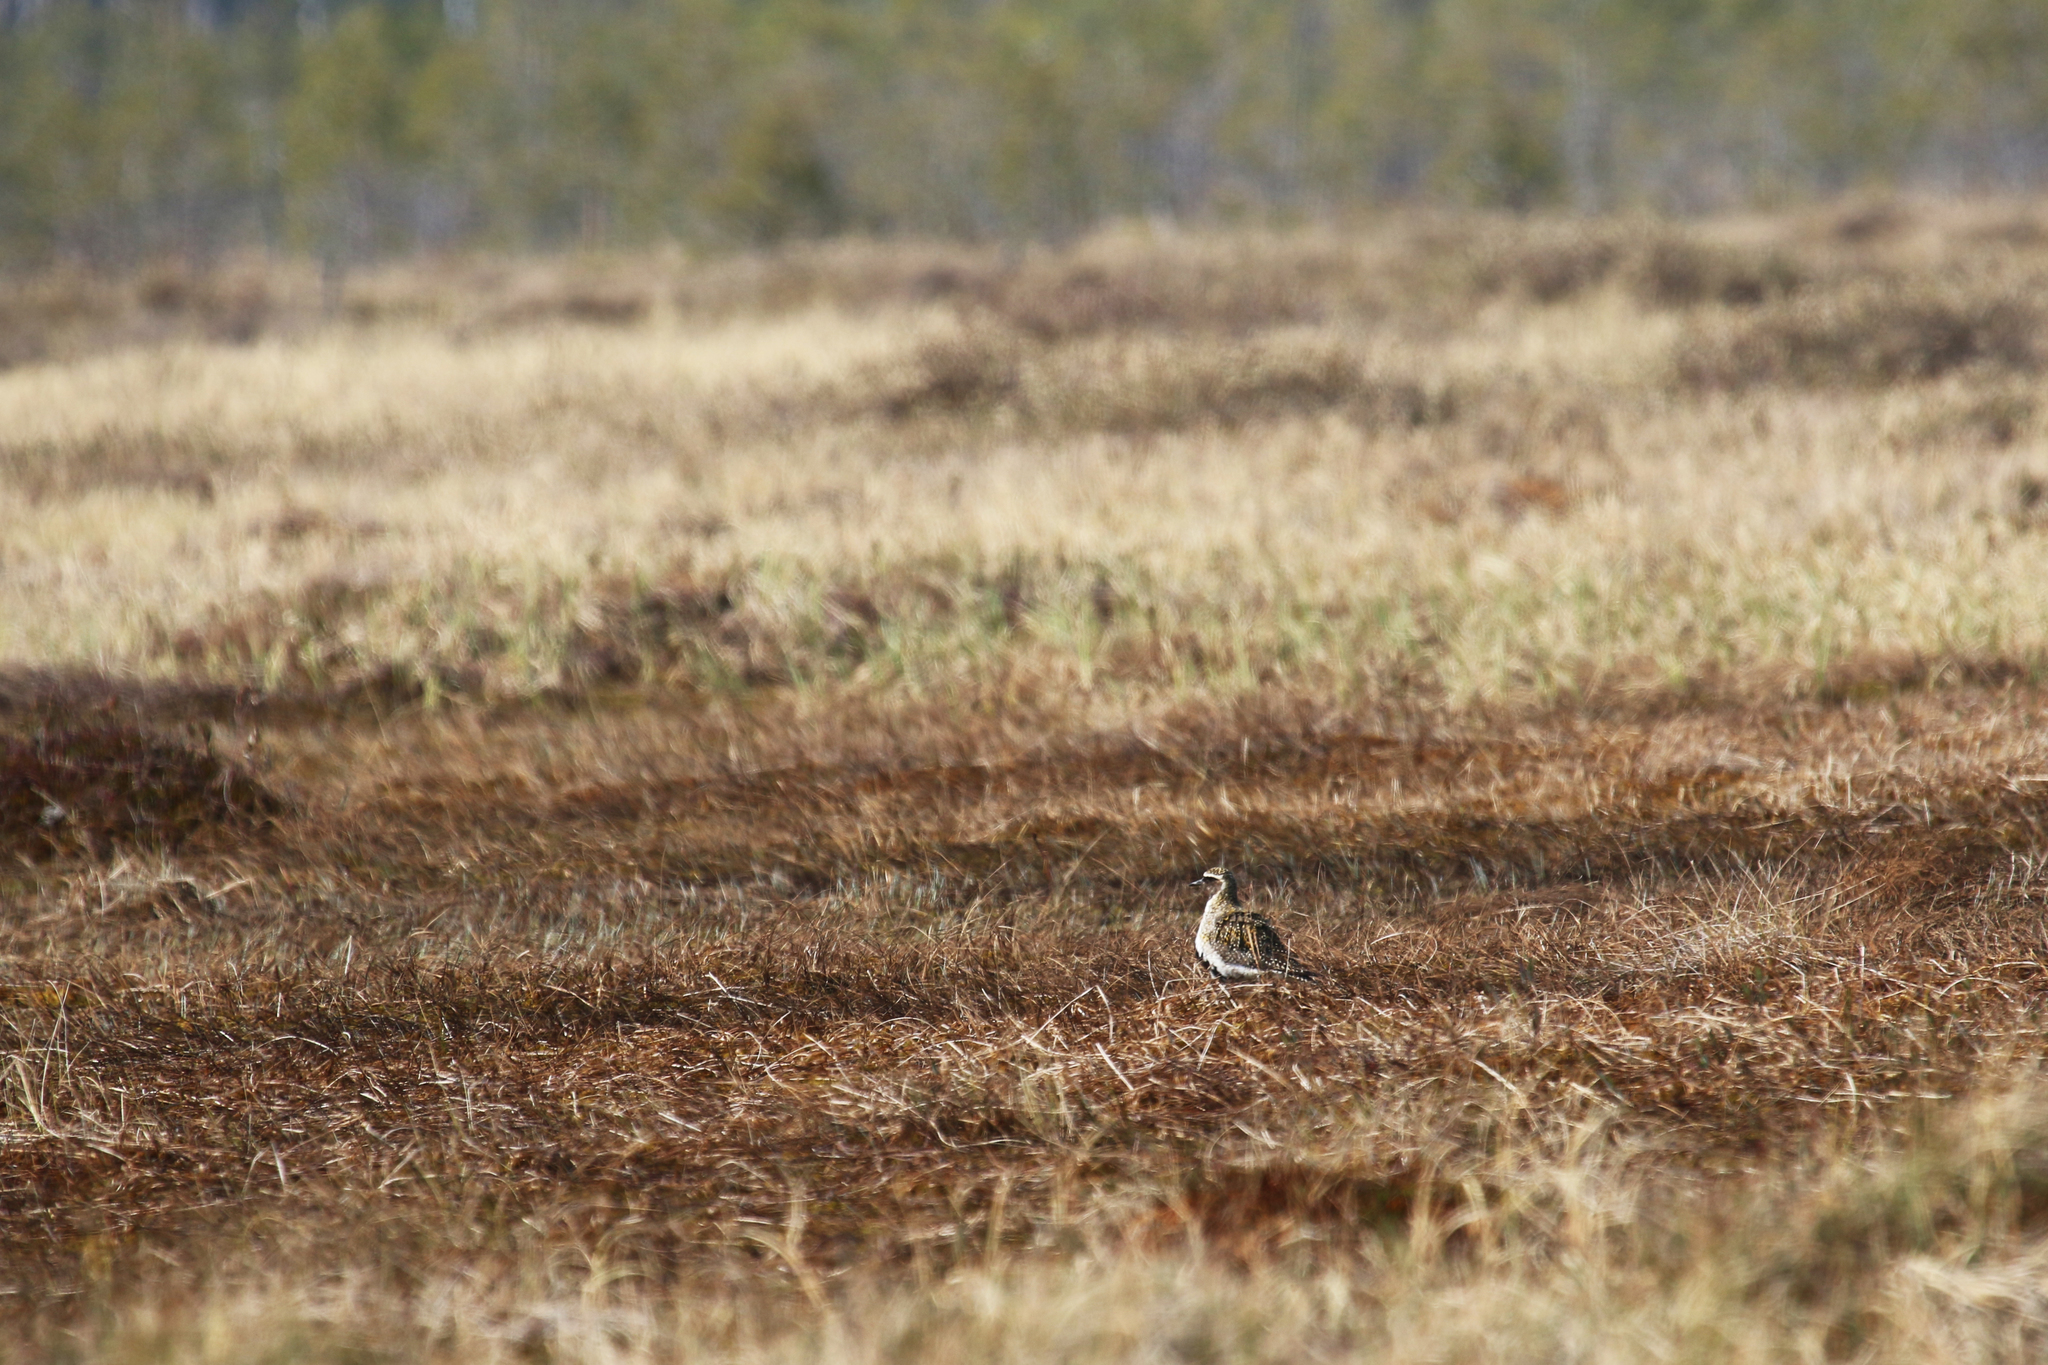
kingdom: Animalia
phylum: Chordata
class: Aves
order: Charadriiformes
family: Charadriidae
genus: Pluvialis
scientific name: Pluvialis apricaria
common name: European golden plover
